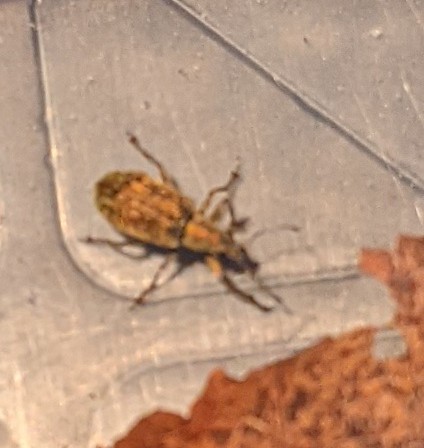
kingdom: Animalia
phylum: Arthropoda
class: Insecta
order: Coleoptera
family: Curculionidae
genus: Polydrusus
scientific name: Polydrusus cervinus
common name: Weevil
